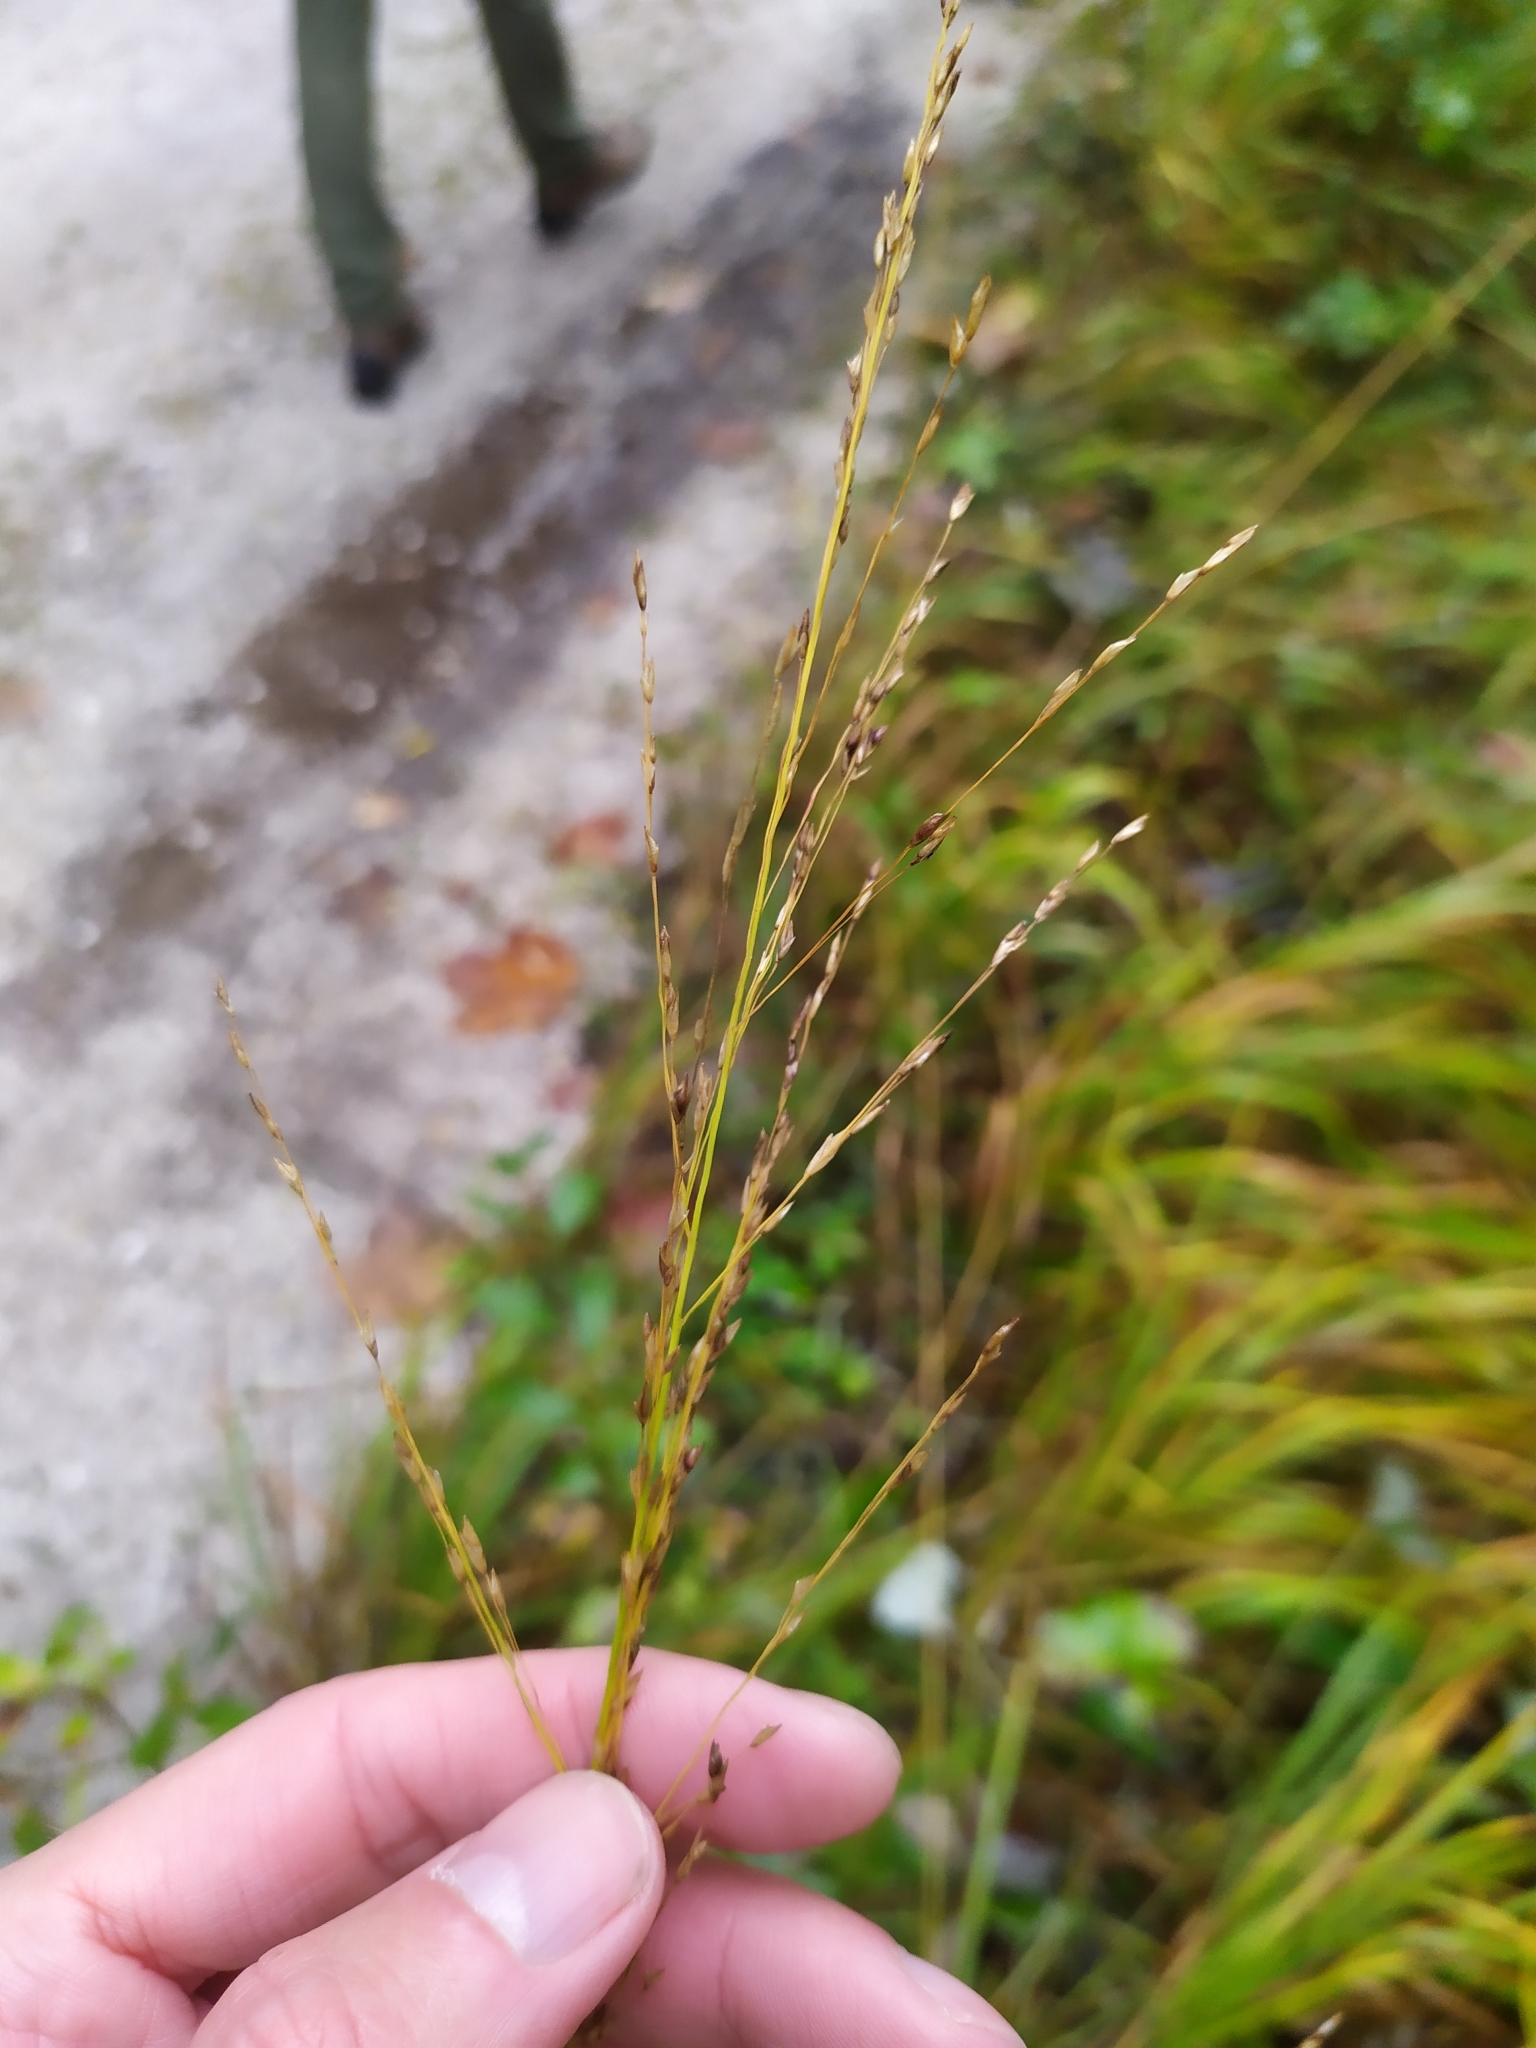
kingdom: Plantae
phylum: Tracheophyta
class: Liliopsida
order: Poales
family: Poaceae
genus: Molinia
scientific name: Molinia caerulea
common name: Purple moor-grass
